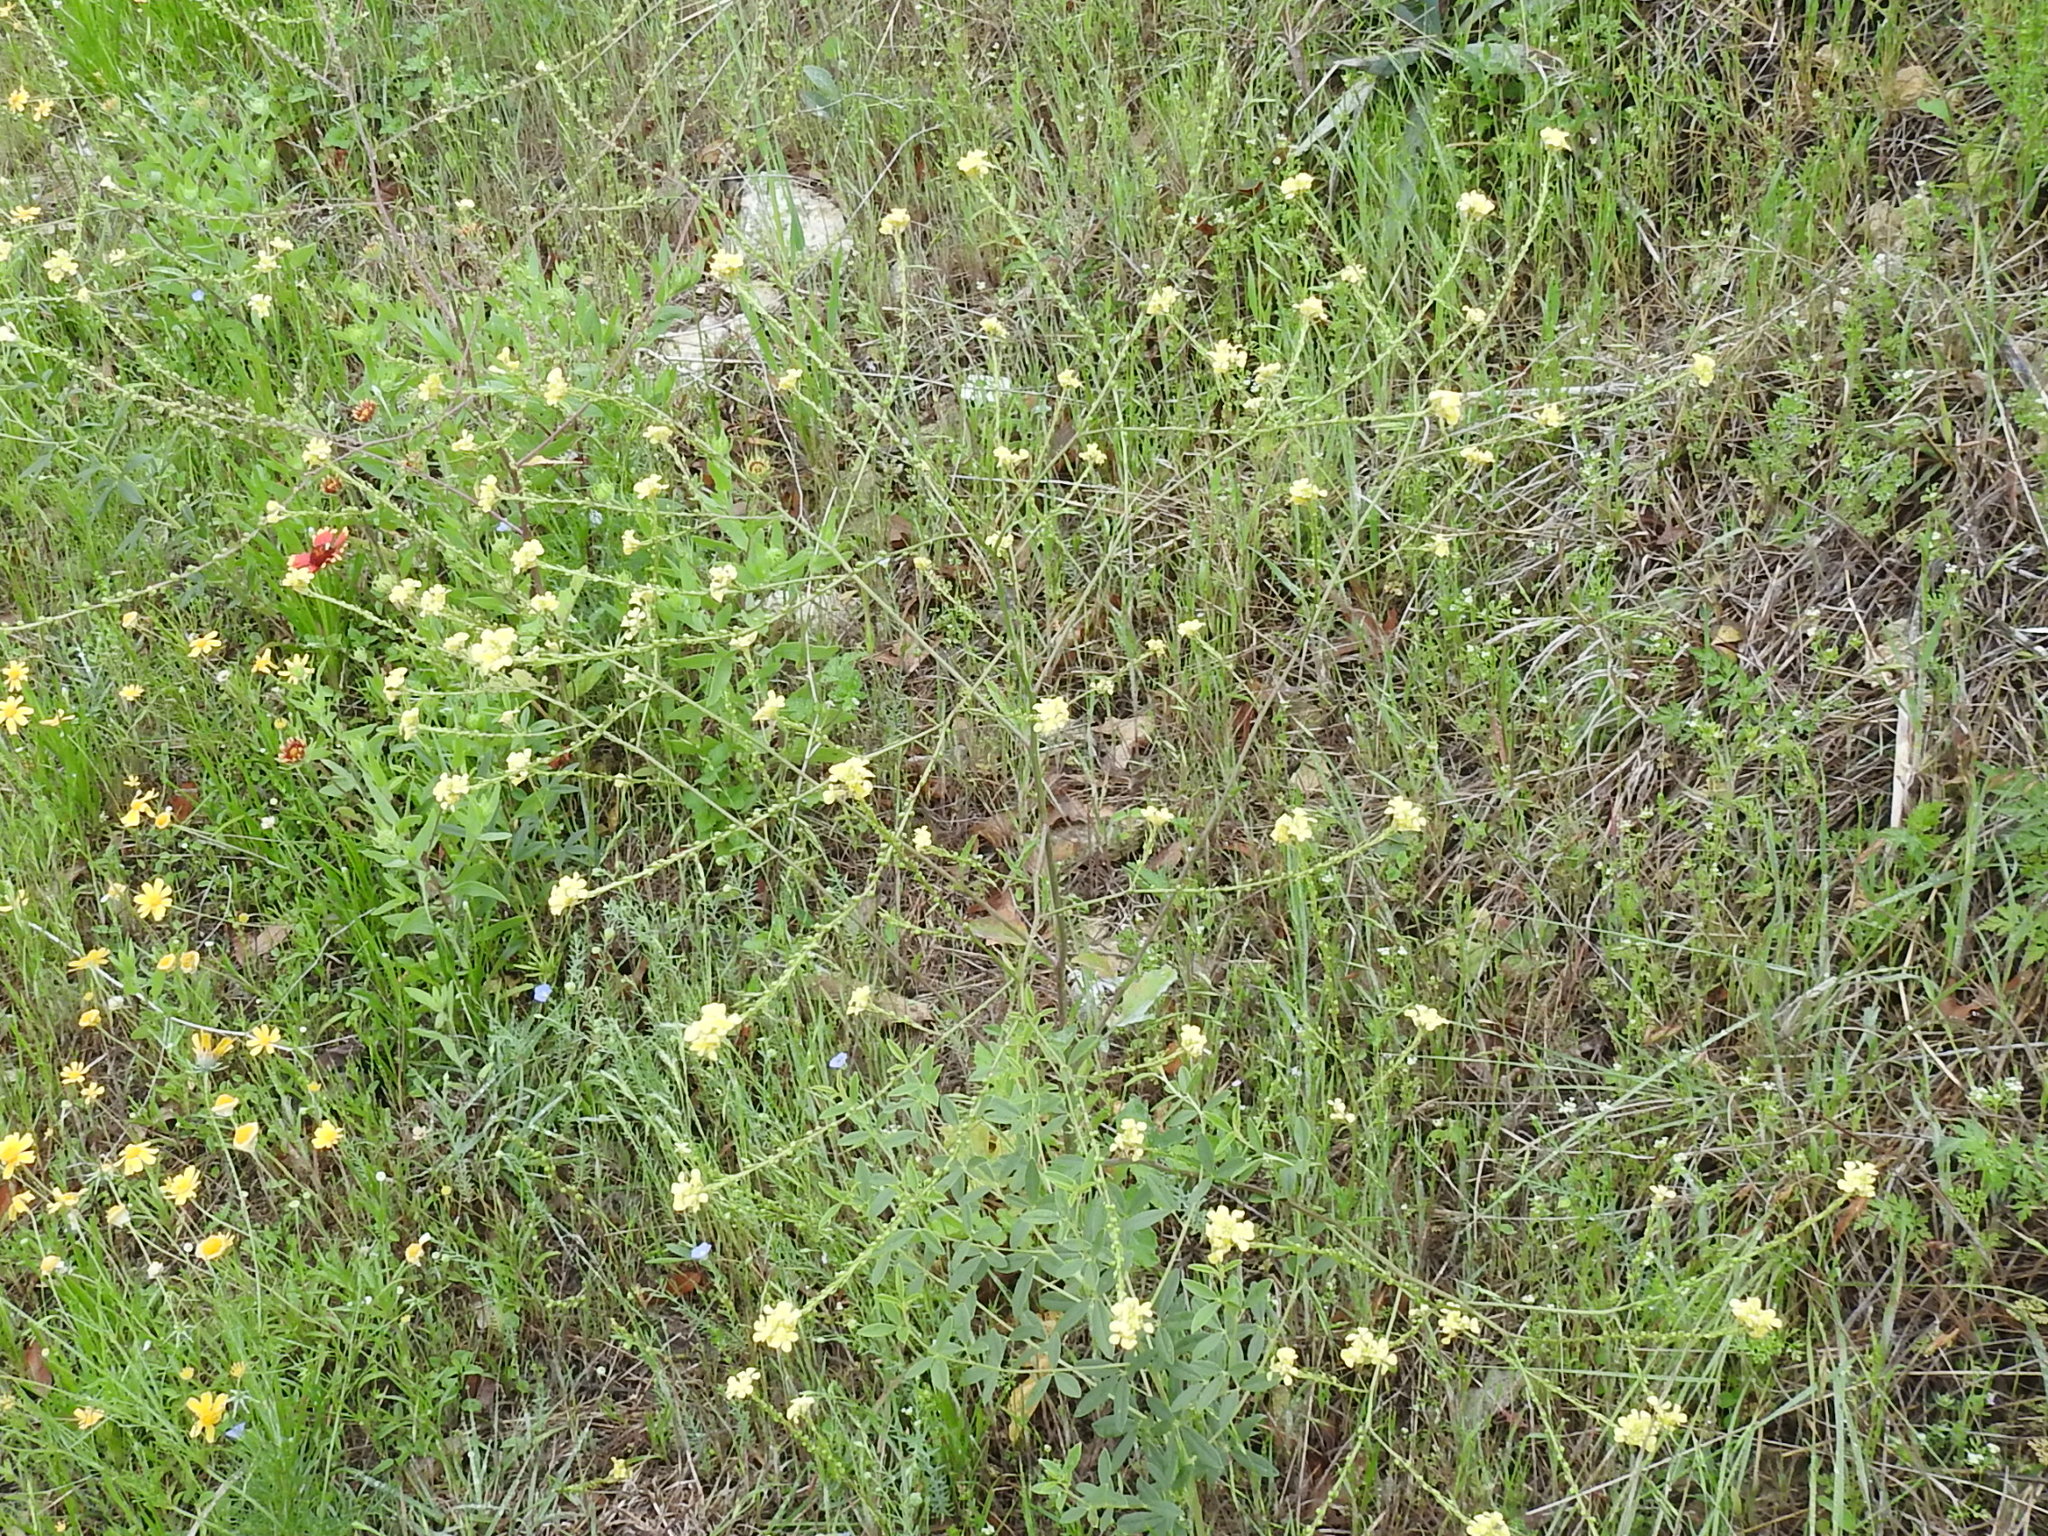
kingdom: Plantae
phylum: Tracheophyta
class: Magnoliopsida
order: Brassicales
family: Brassicaceae
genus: Rapistrum
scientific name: Rapistrum rugosum
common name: Annual bastardcabbage
